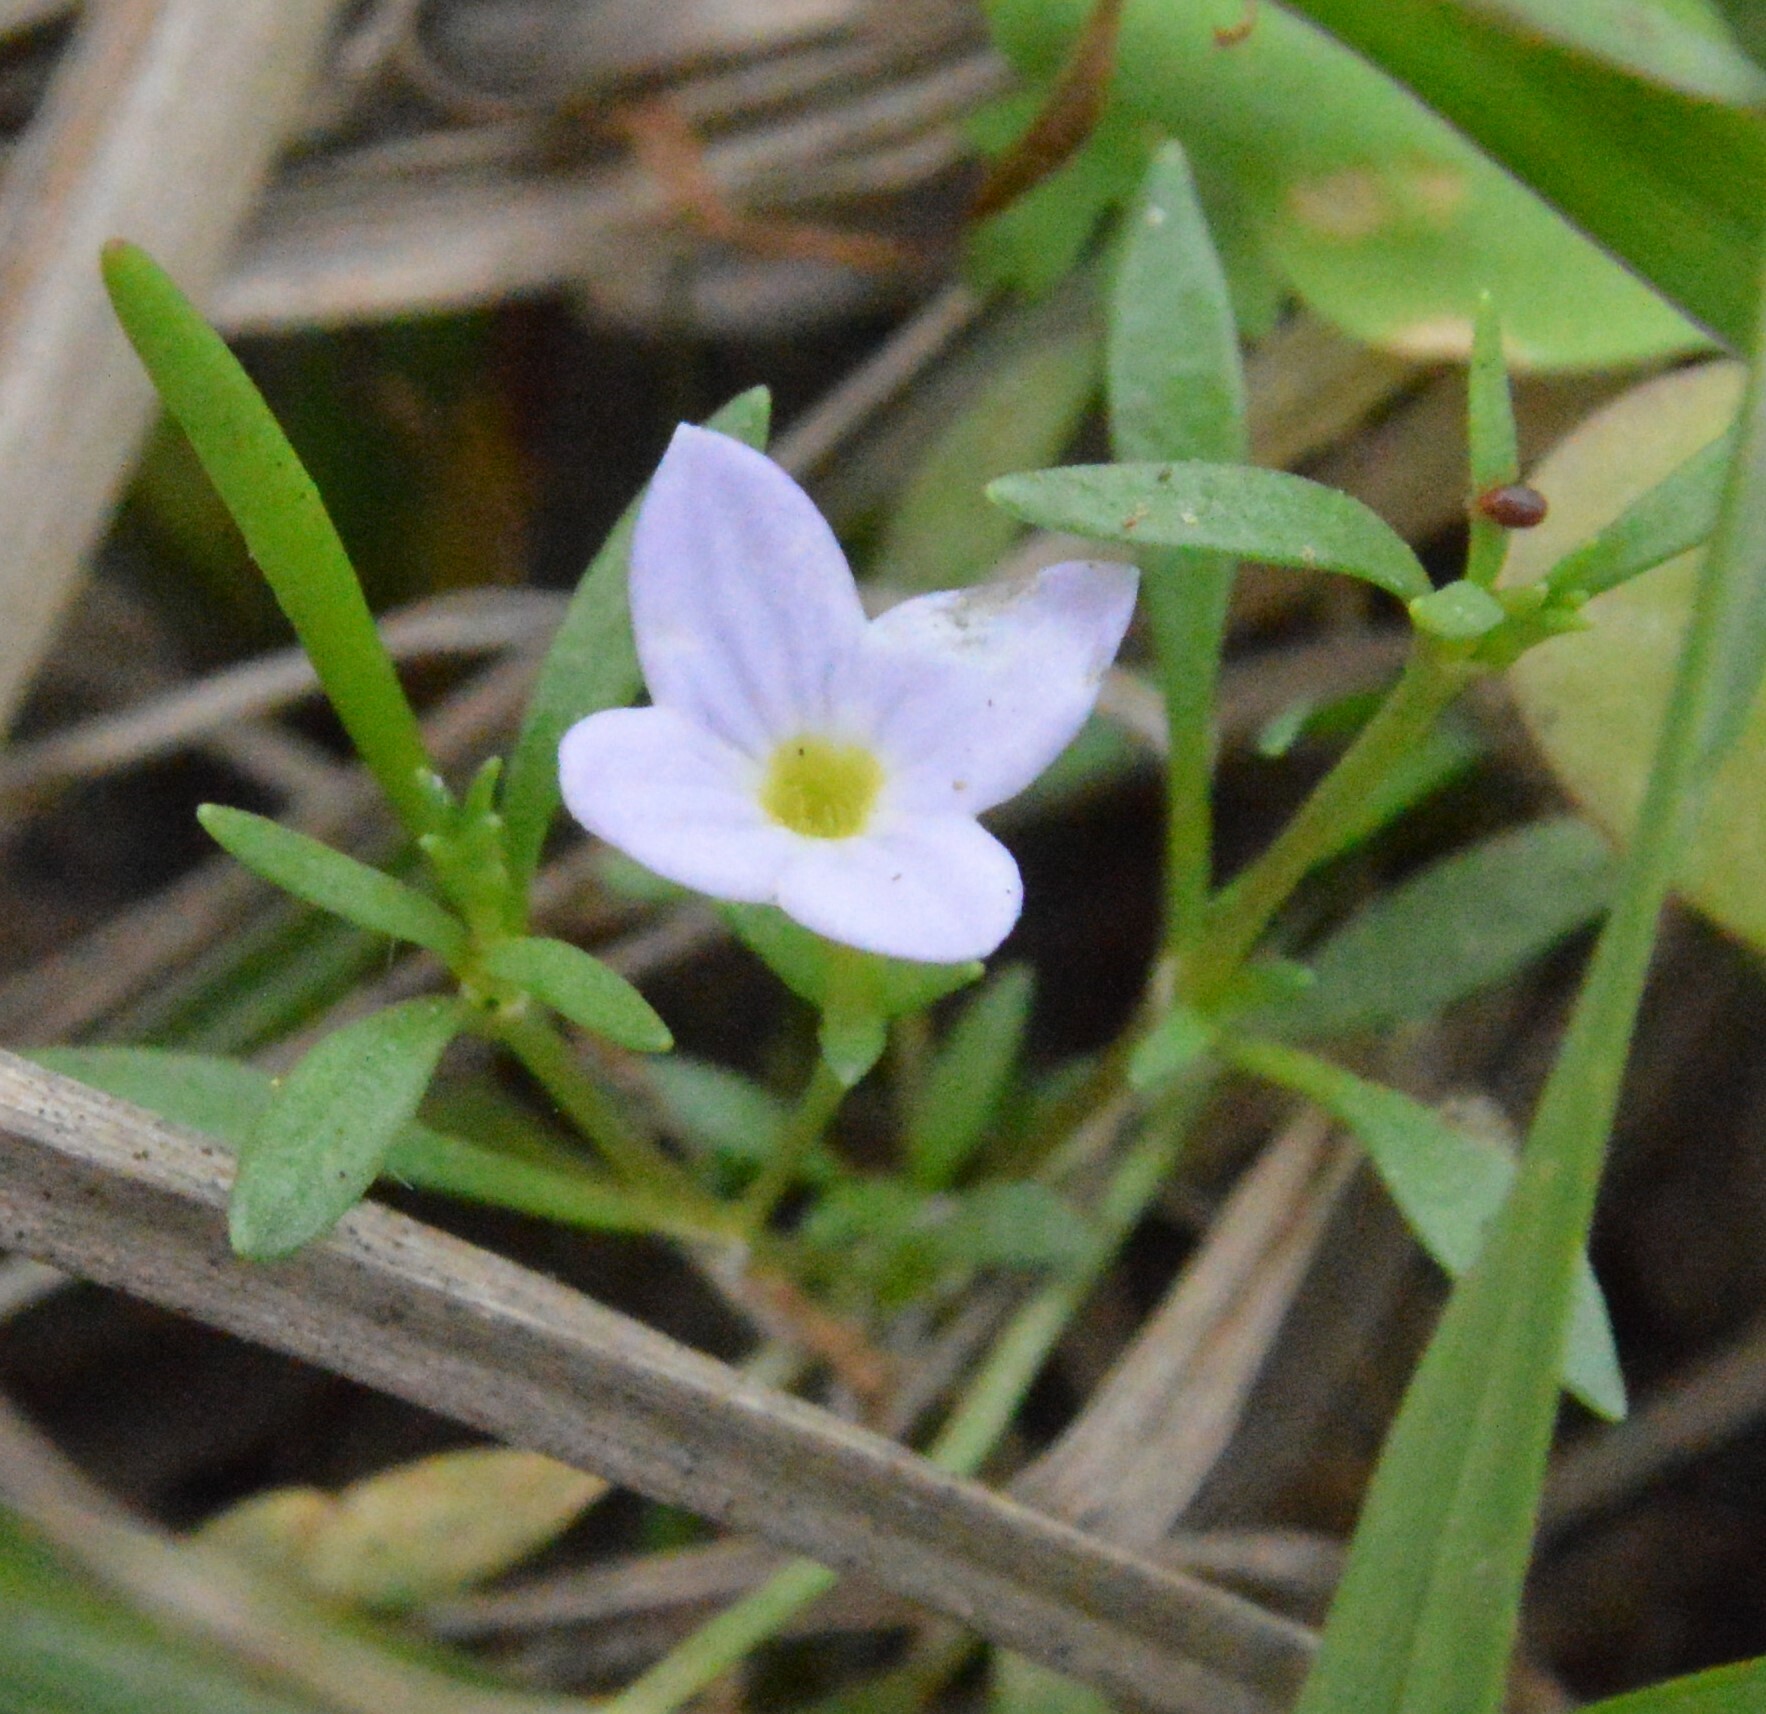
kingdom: Plantae
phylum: Tracheophyta
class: Magnoliopsida
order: Gentianales
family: Rubiaceae
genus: Houstonia
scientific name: Houstonia rosea
